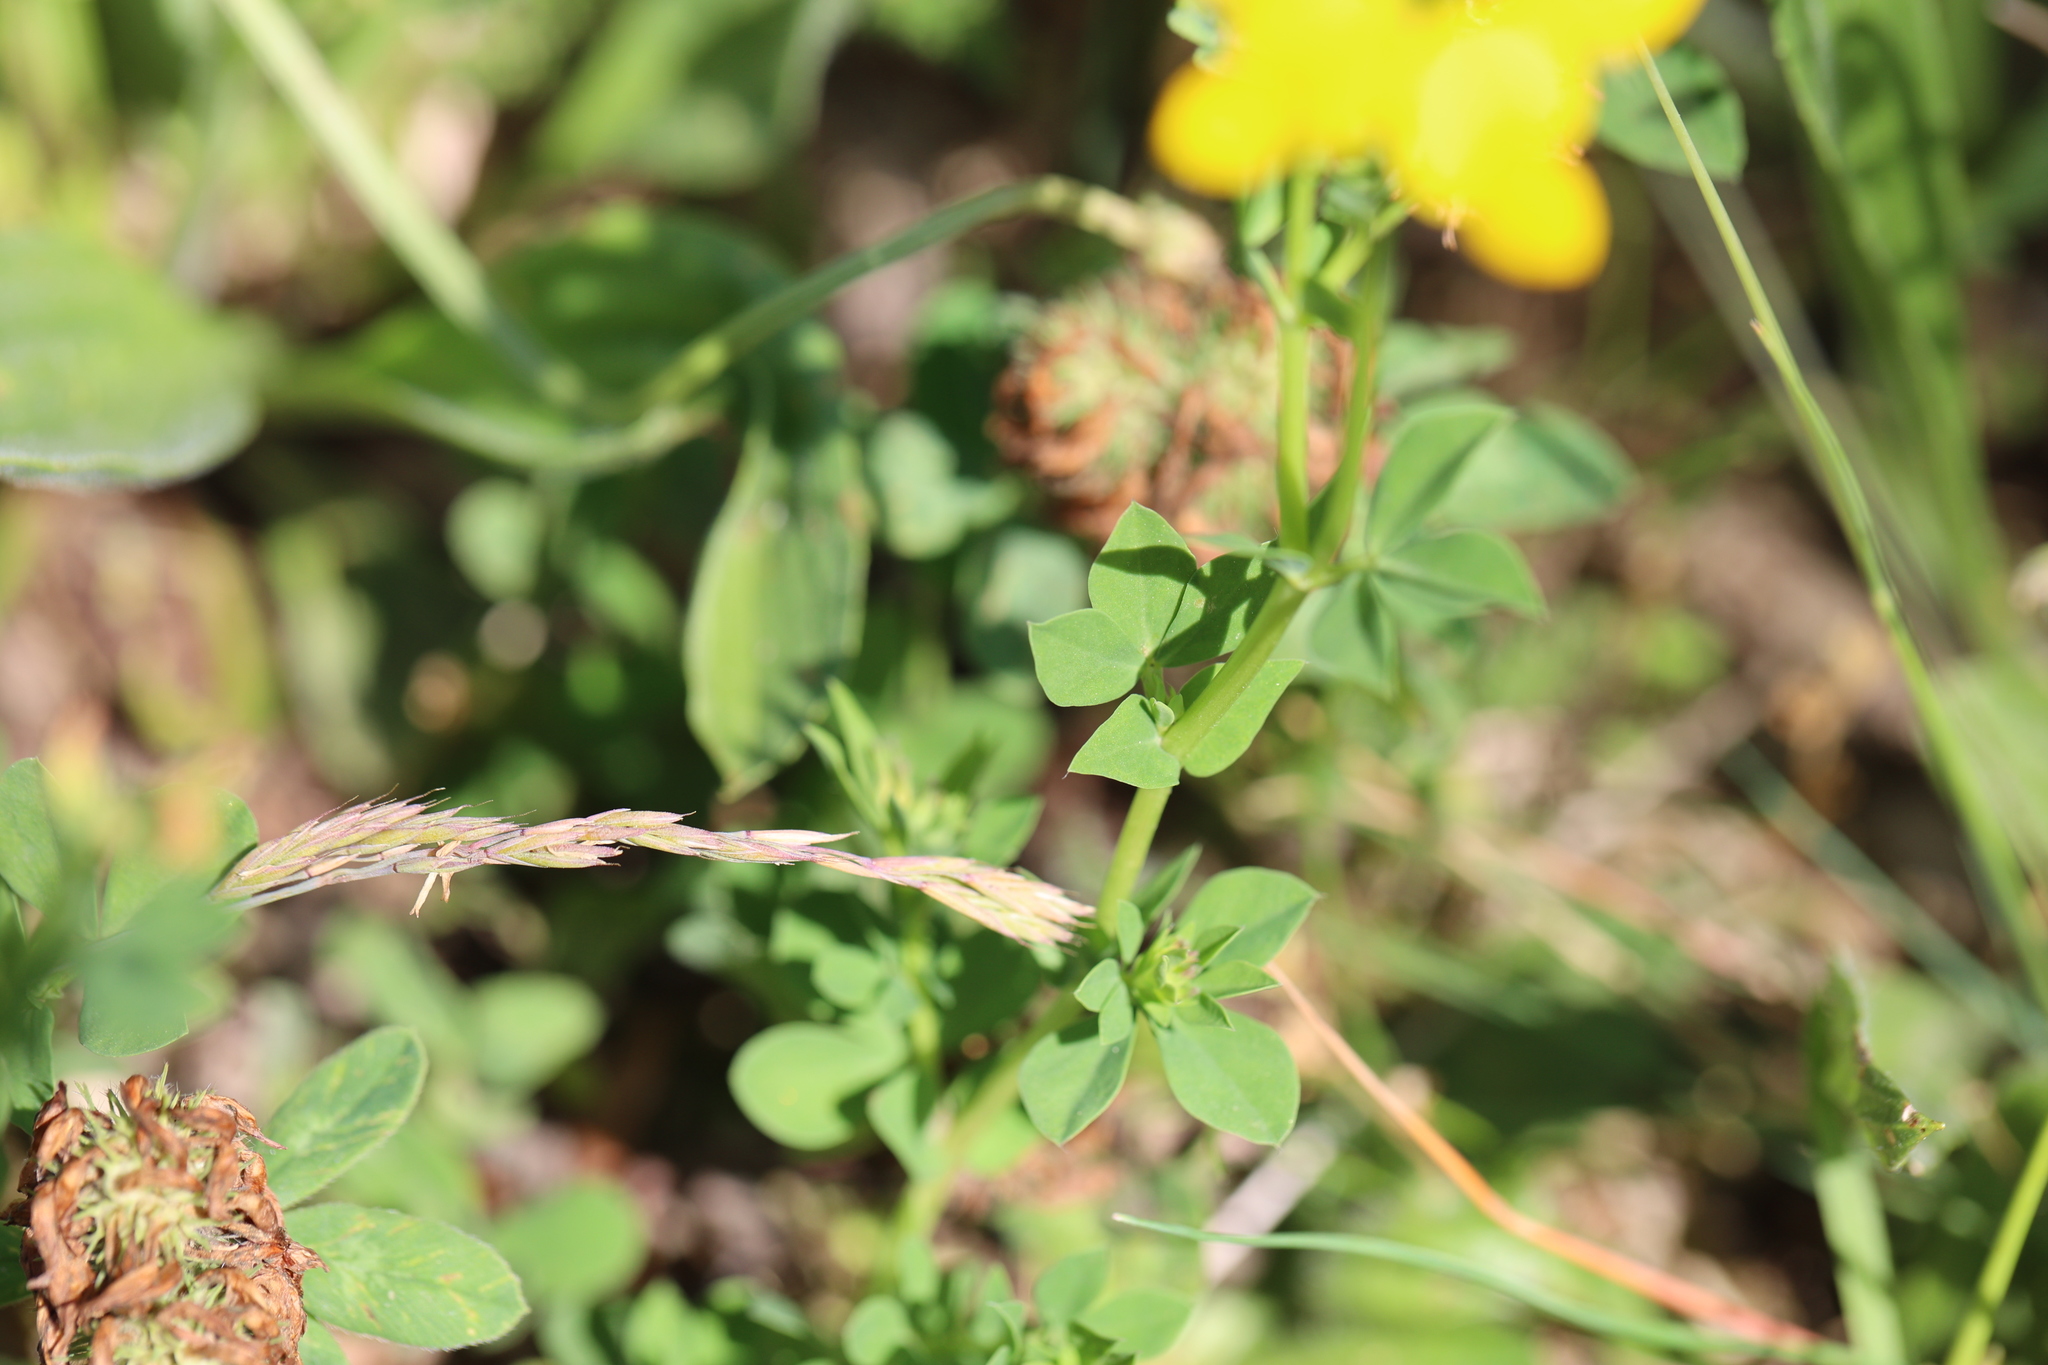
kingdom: Plantae
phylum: Tracheophyta
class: Magnoliopsida
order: Fabales
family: Fabaceae
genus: Lotus
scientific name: Lotus corniculatus
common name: Common bird's-foot-trefoil
